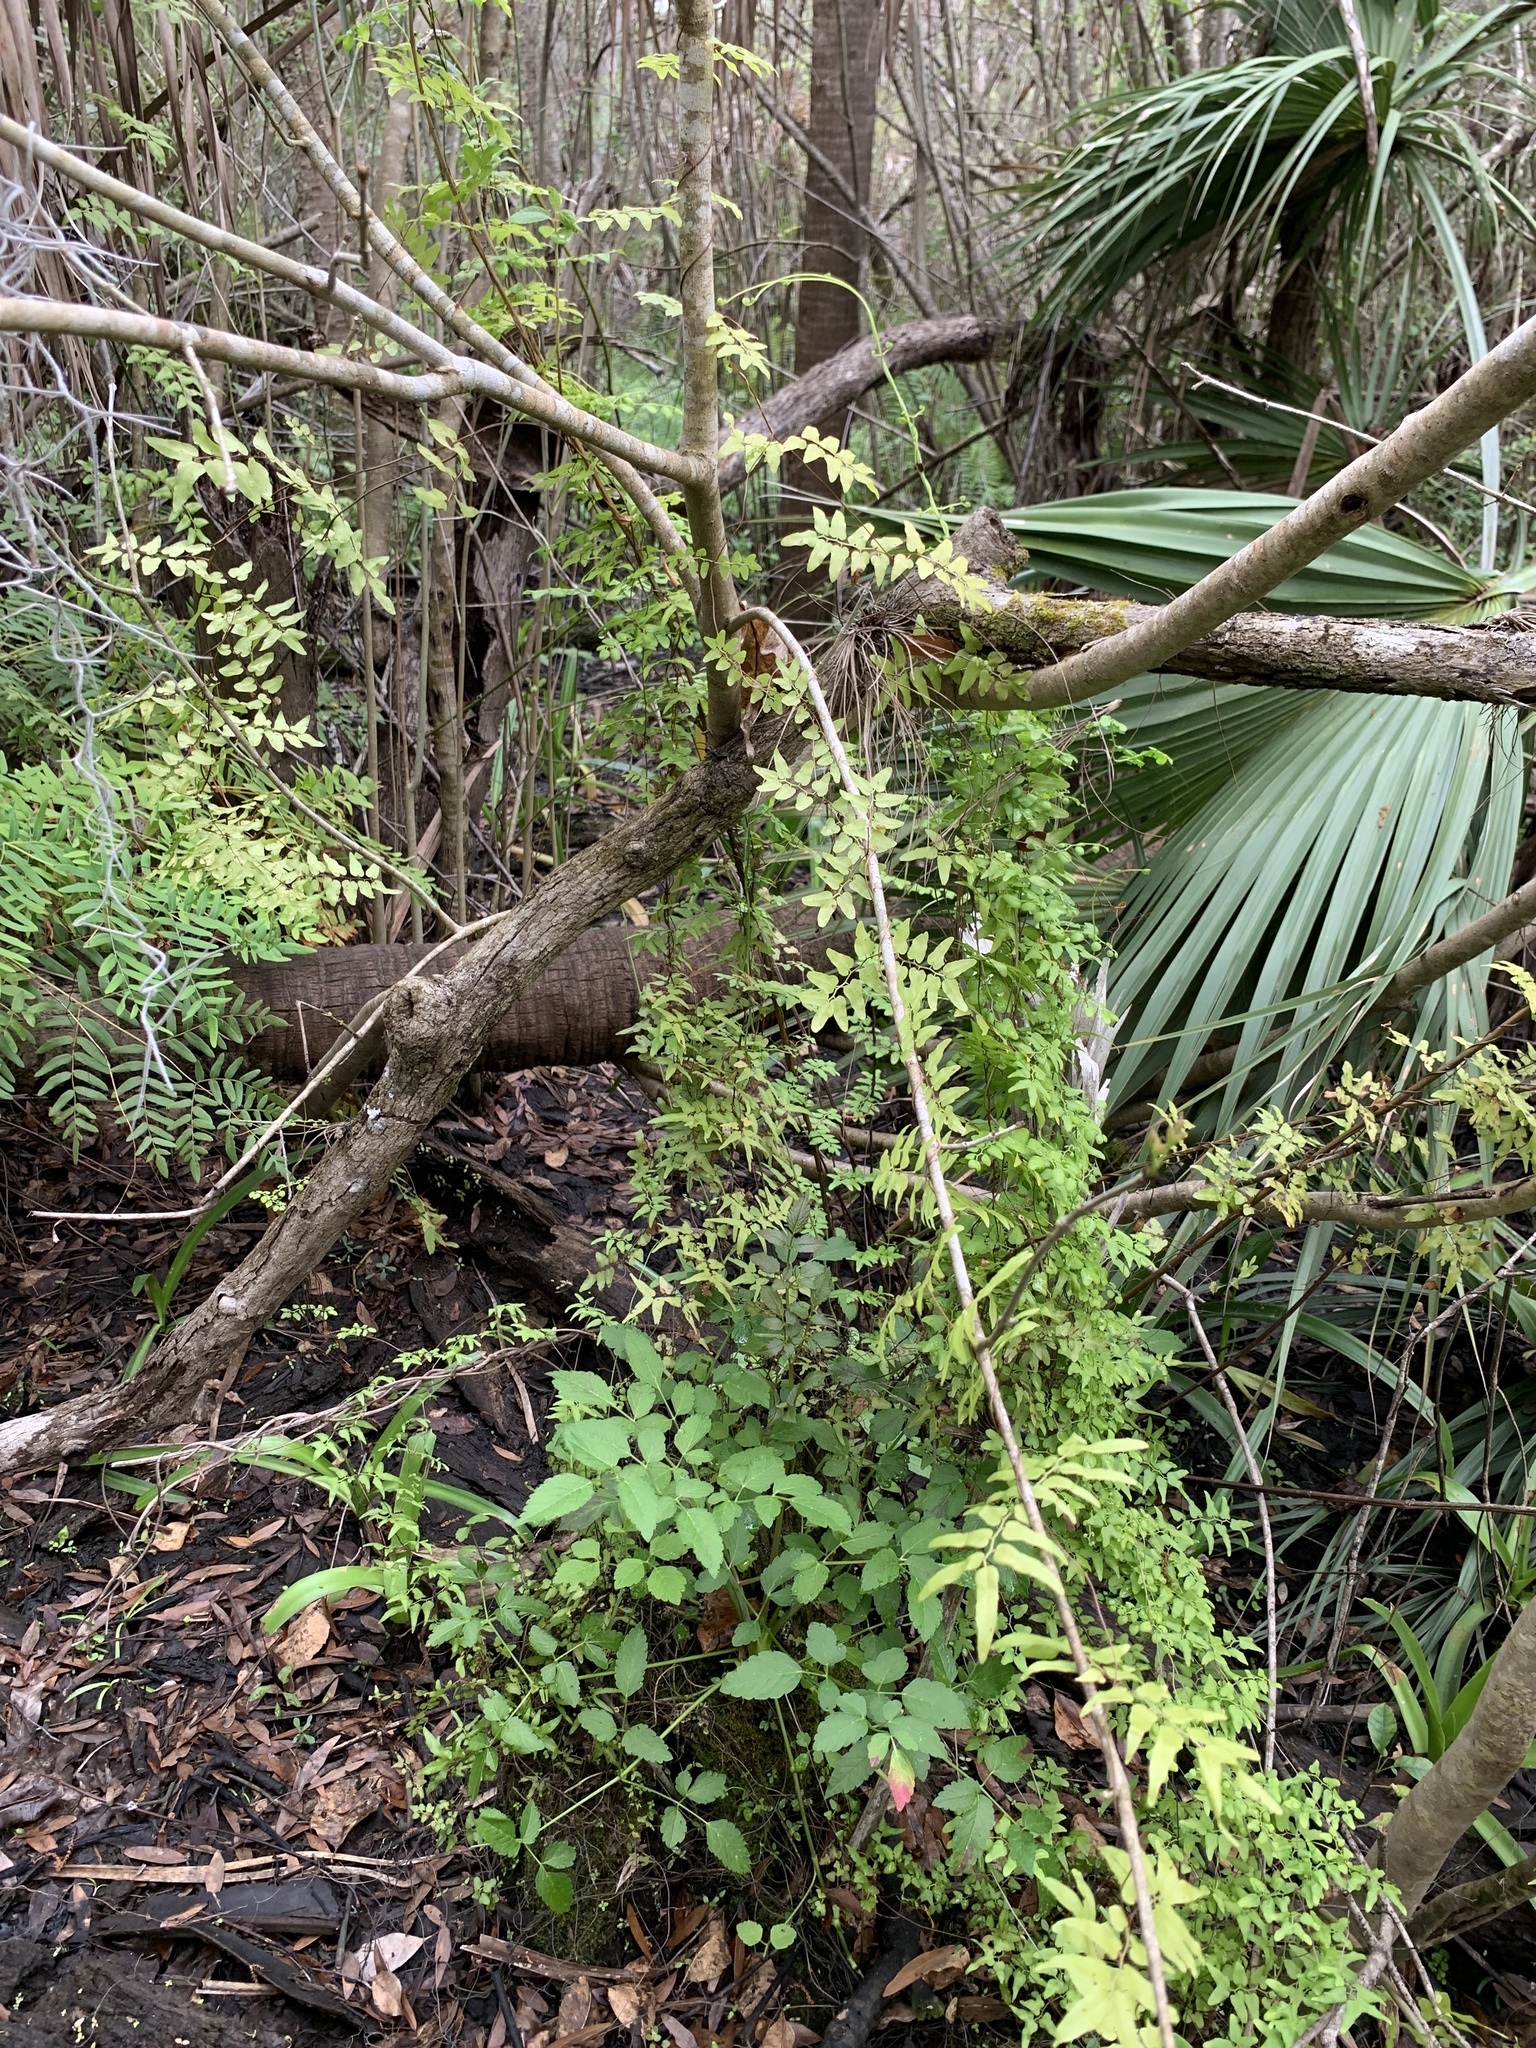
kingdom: Plantae
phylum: Tracheophyta
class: Polypodiopsida
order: Schizaeales
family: Lygodiaceae
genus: Lygodium
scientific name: Lygodium microphyllum
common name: Small-leaf climbing fern
